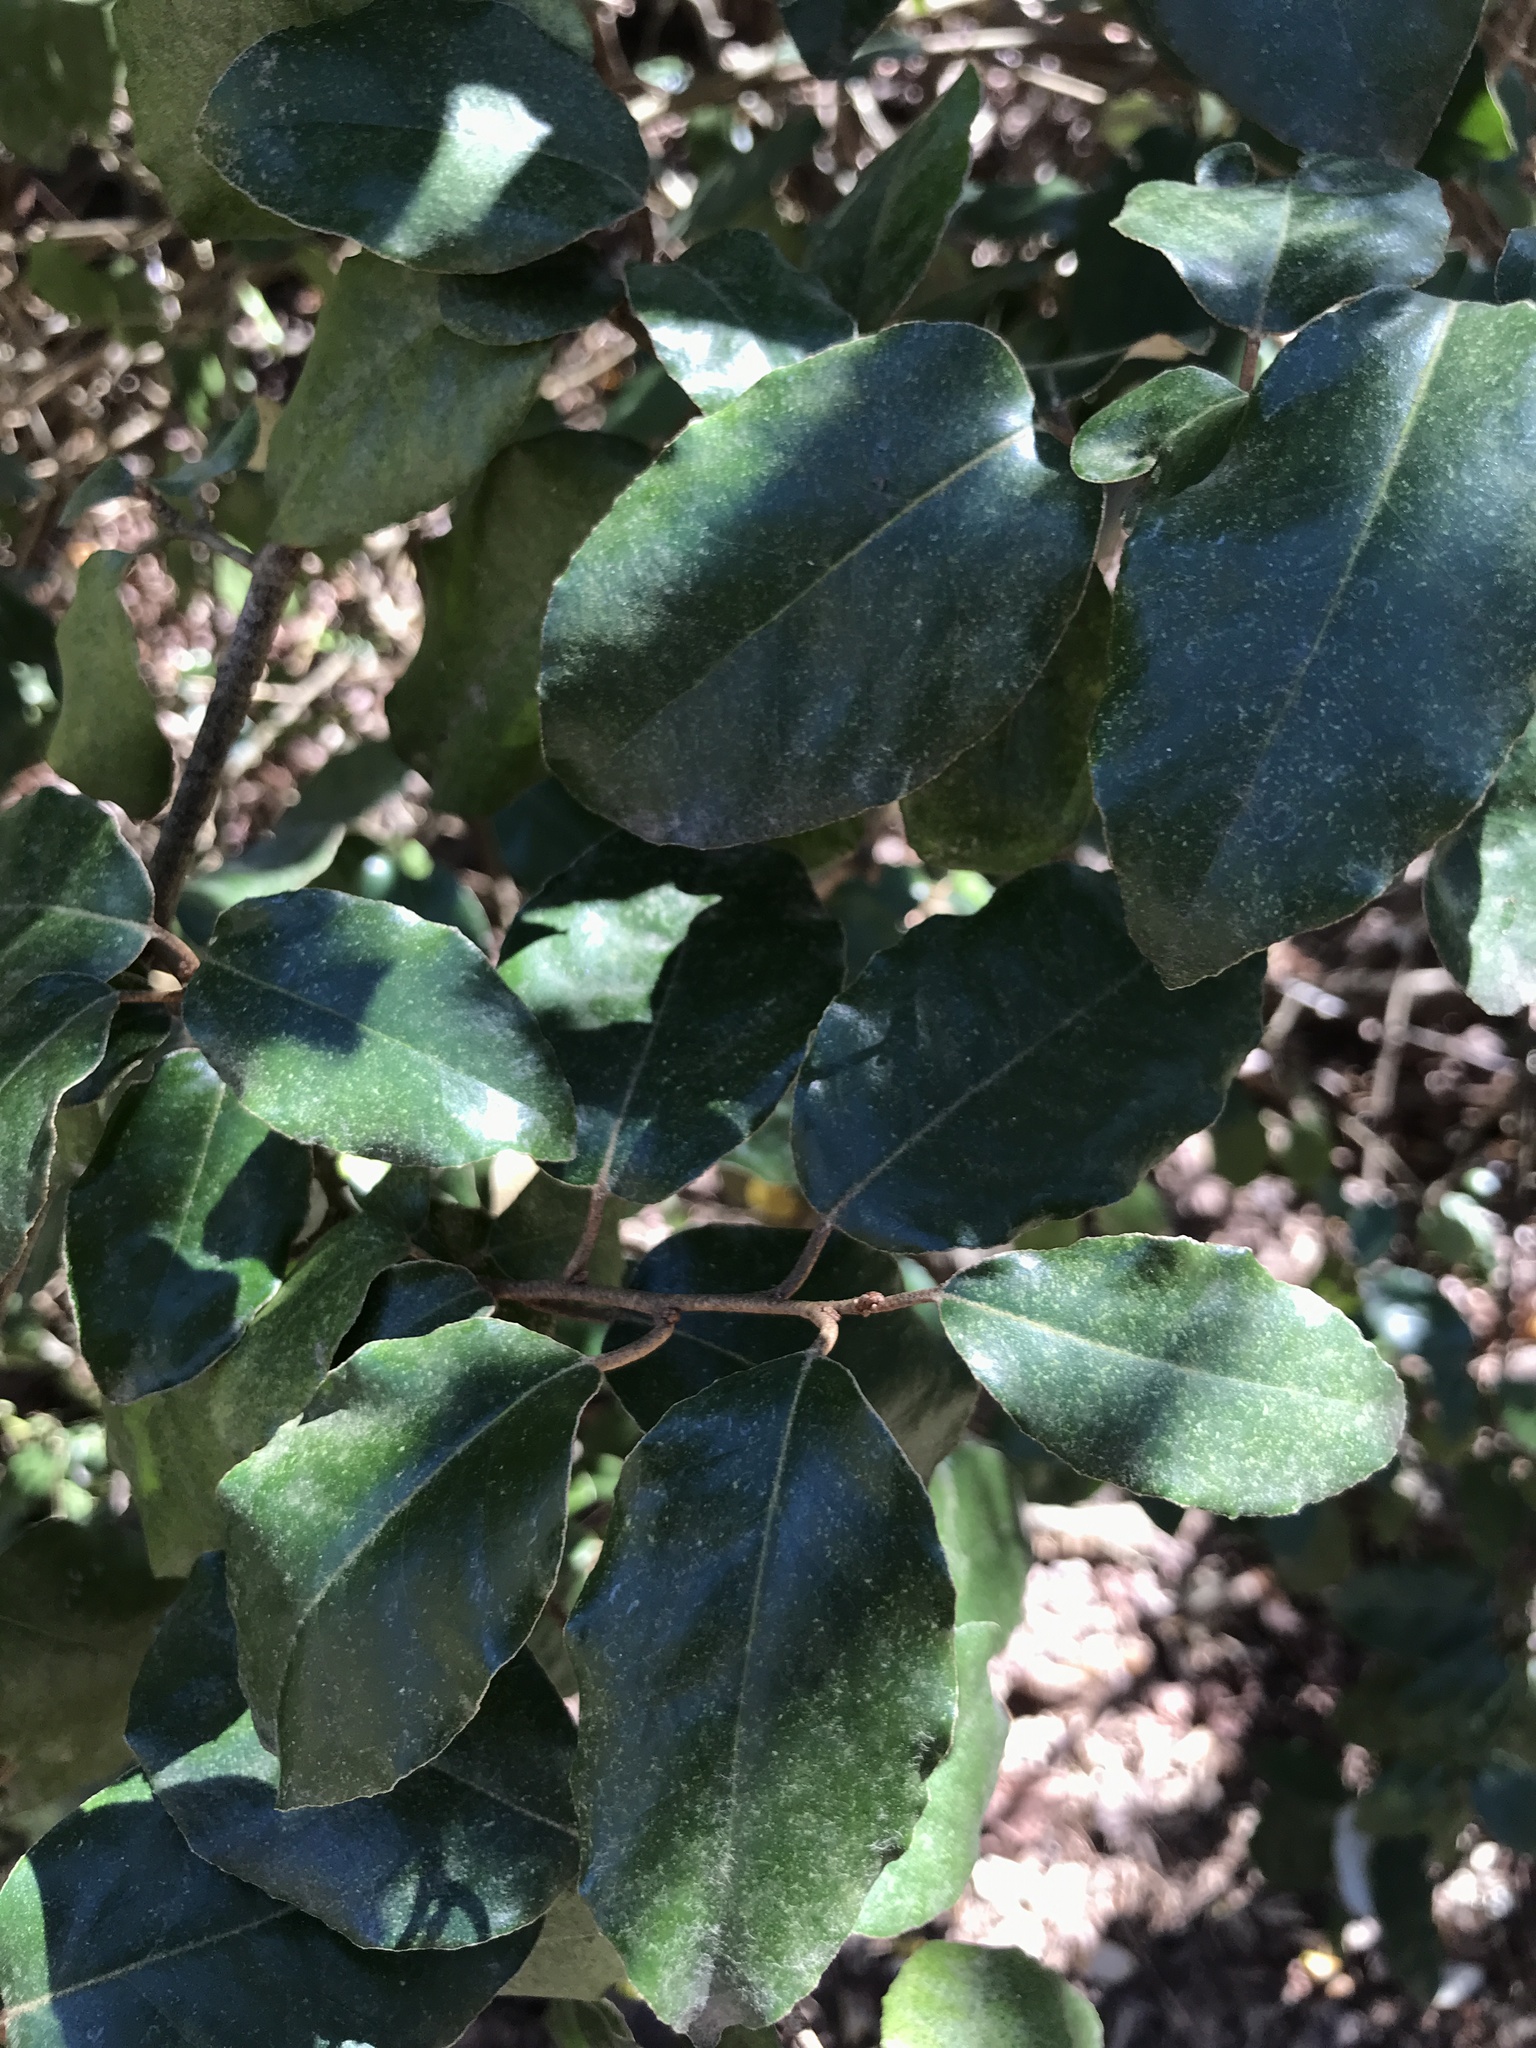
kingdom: Plantae
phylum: Tracheophyta
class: Magnoliopsida
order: Rosales
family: Elaeagnaceae
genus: Elaeagnus
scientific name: Elaeagnus pungens
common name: Spiny oleaster
